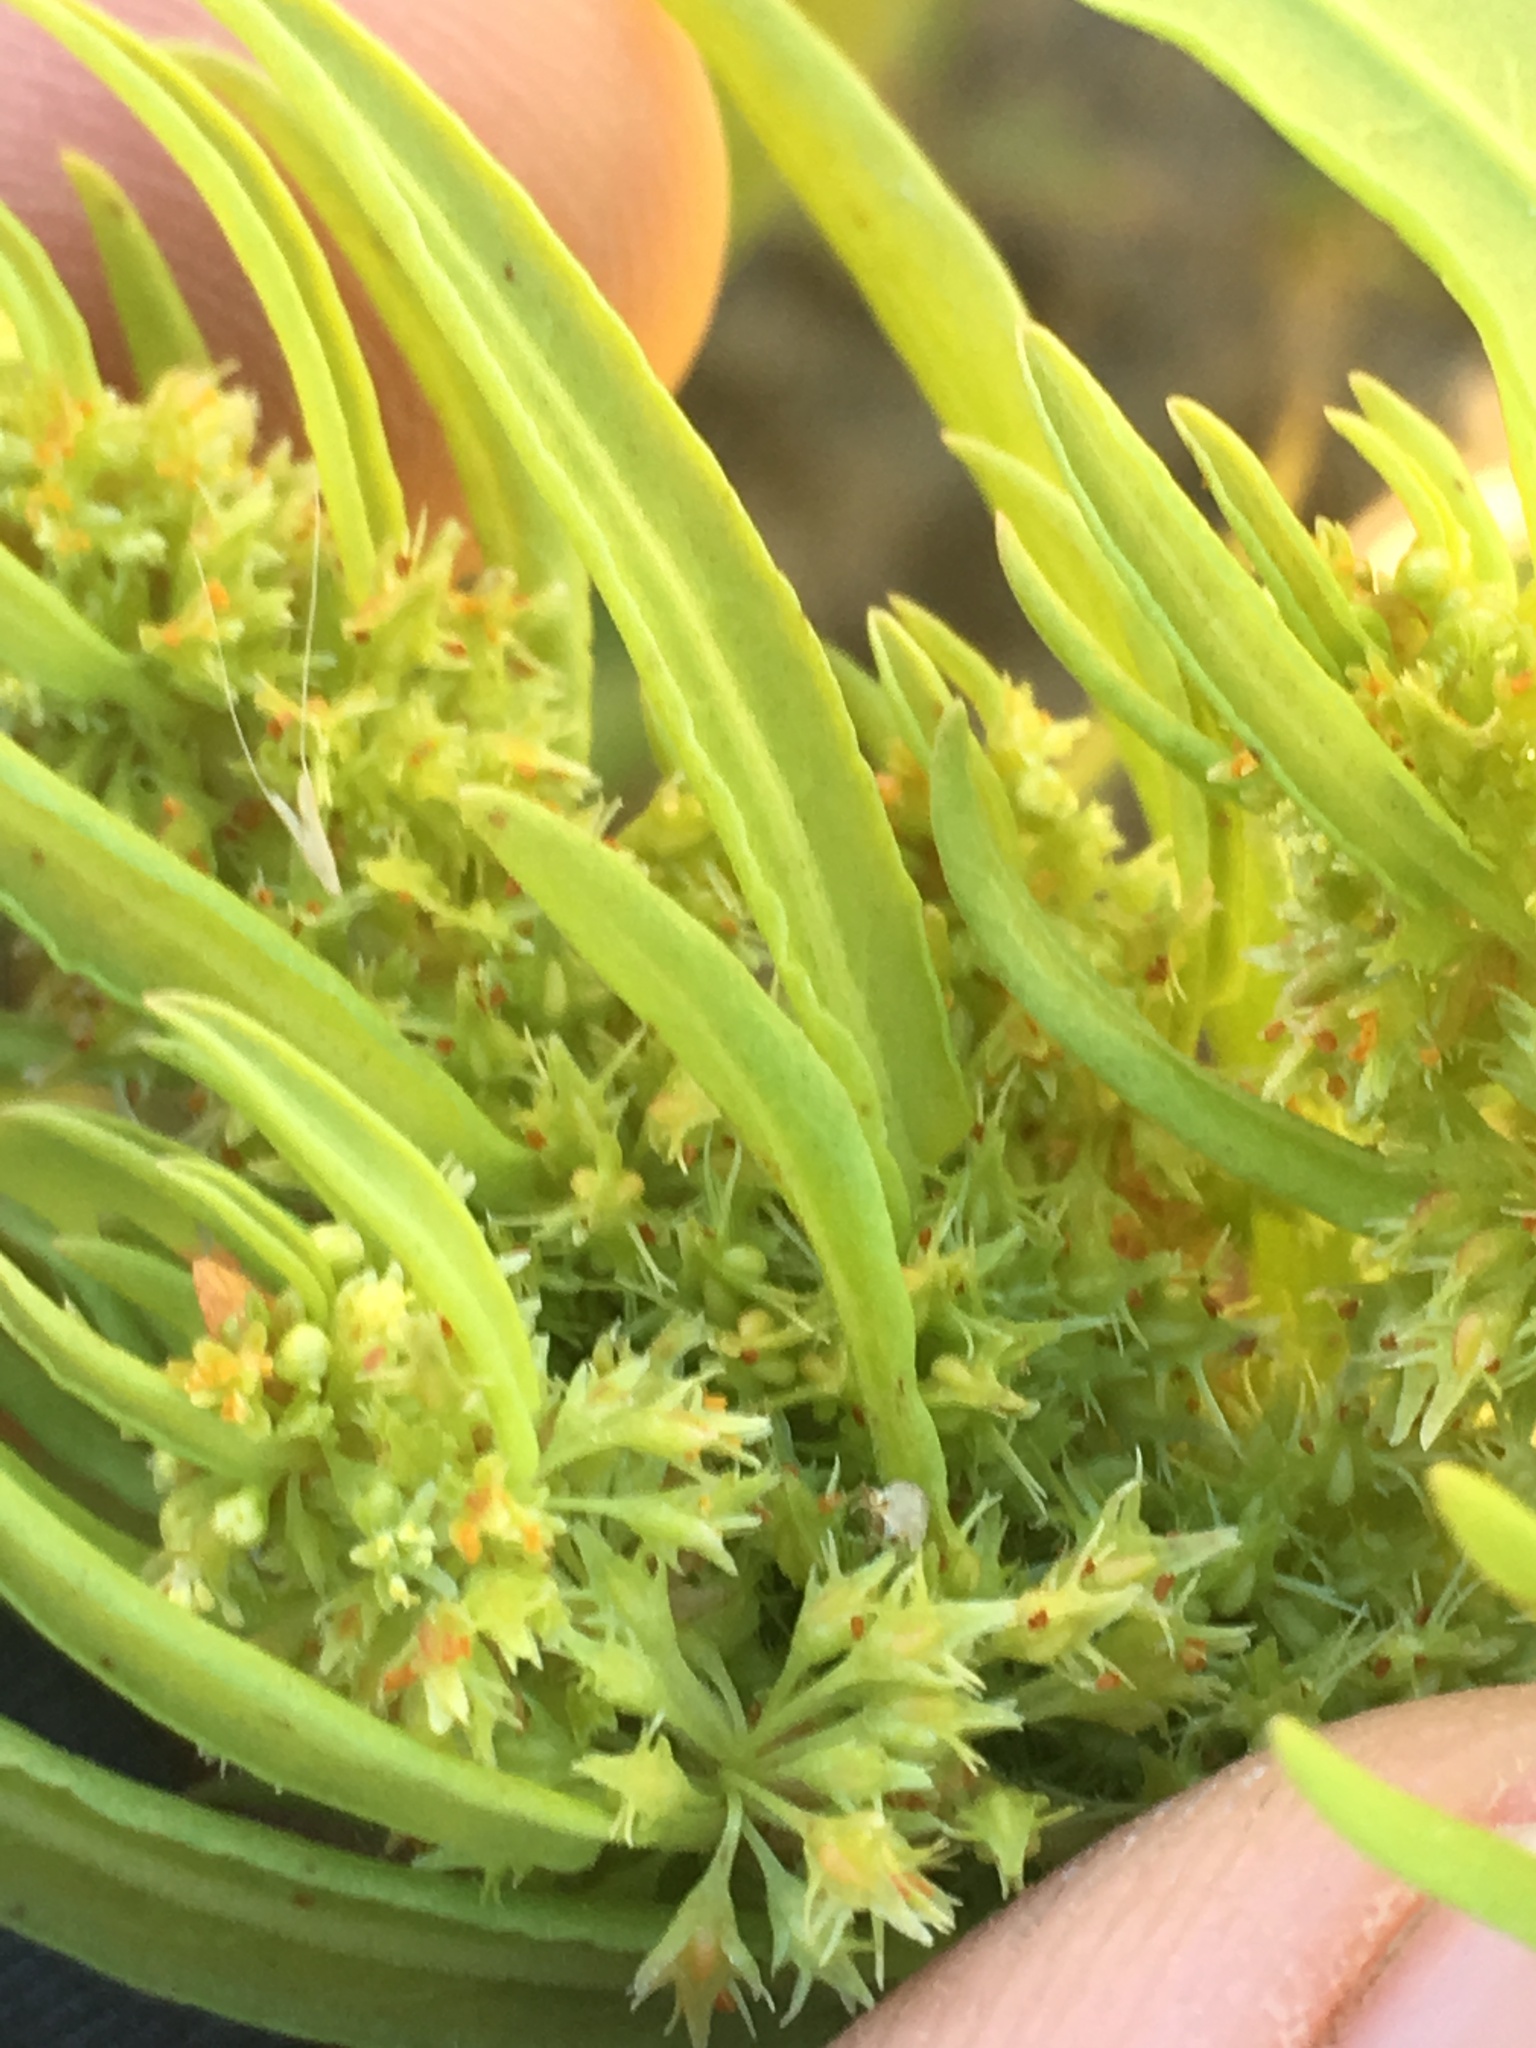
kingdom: Plantae
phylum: Tracheophyta
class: Magnoliopsida
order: Caryophyllales
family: Polygonaceae
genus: Rumex
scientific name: Rumex fueginus
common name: American golden dock
